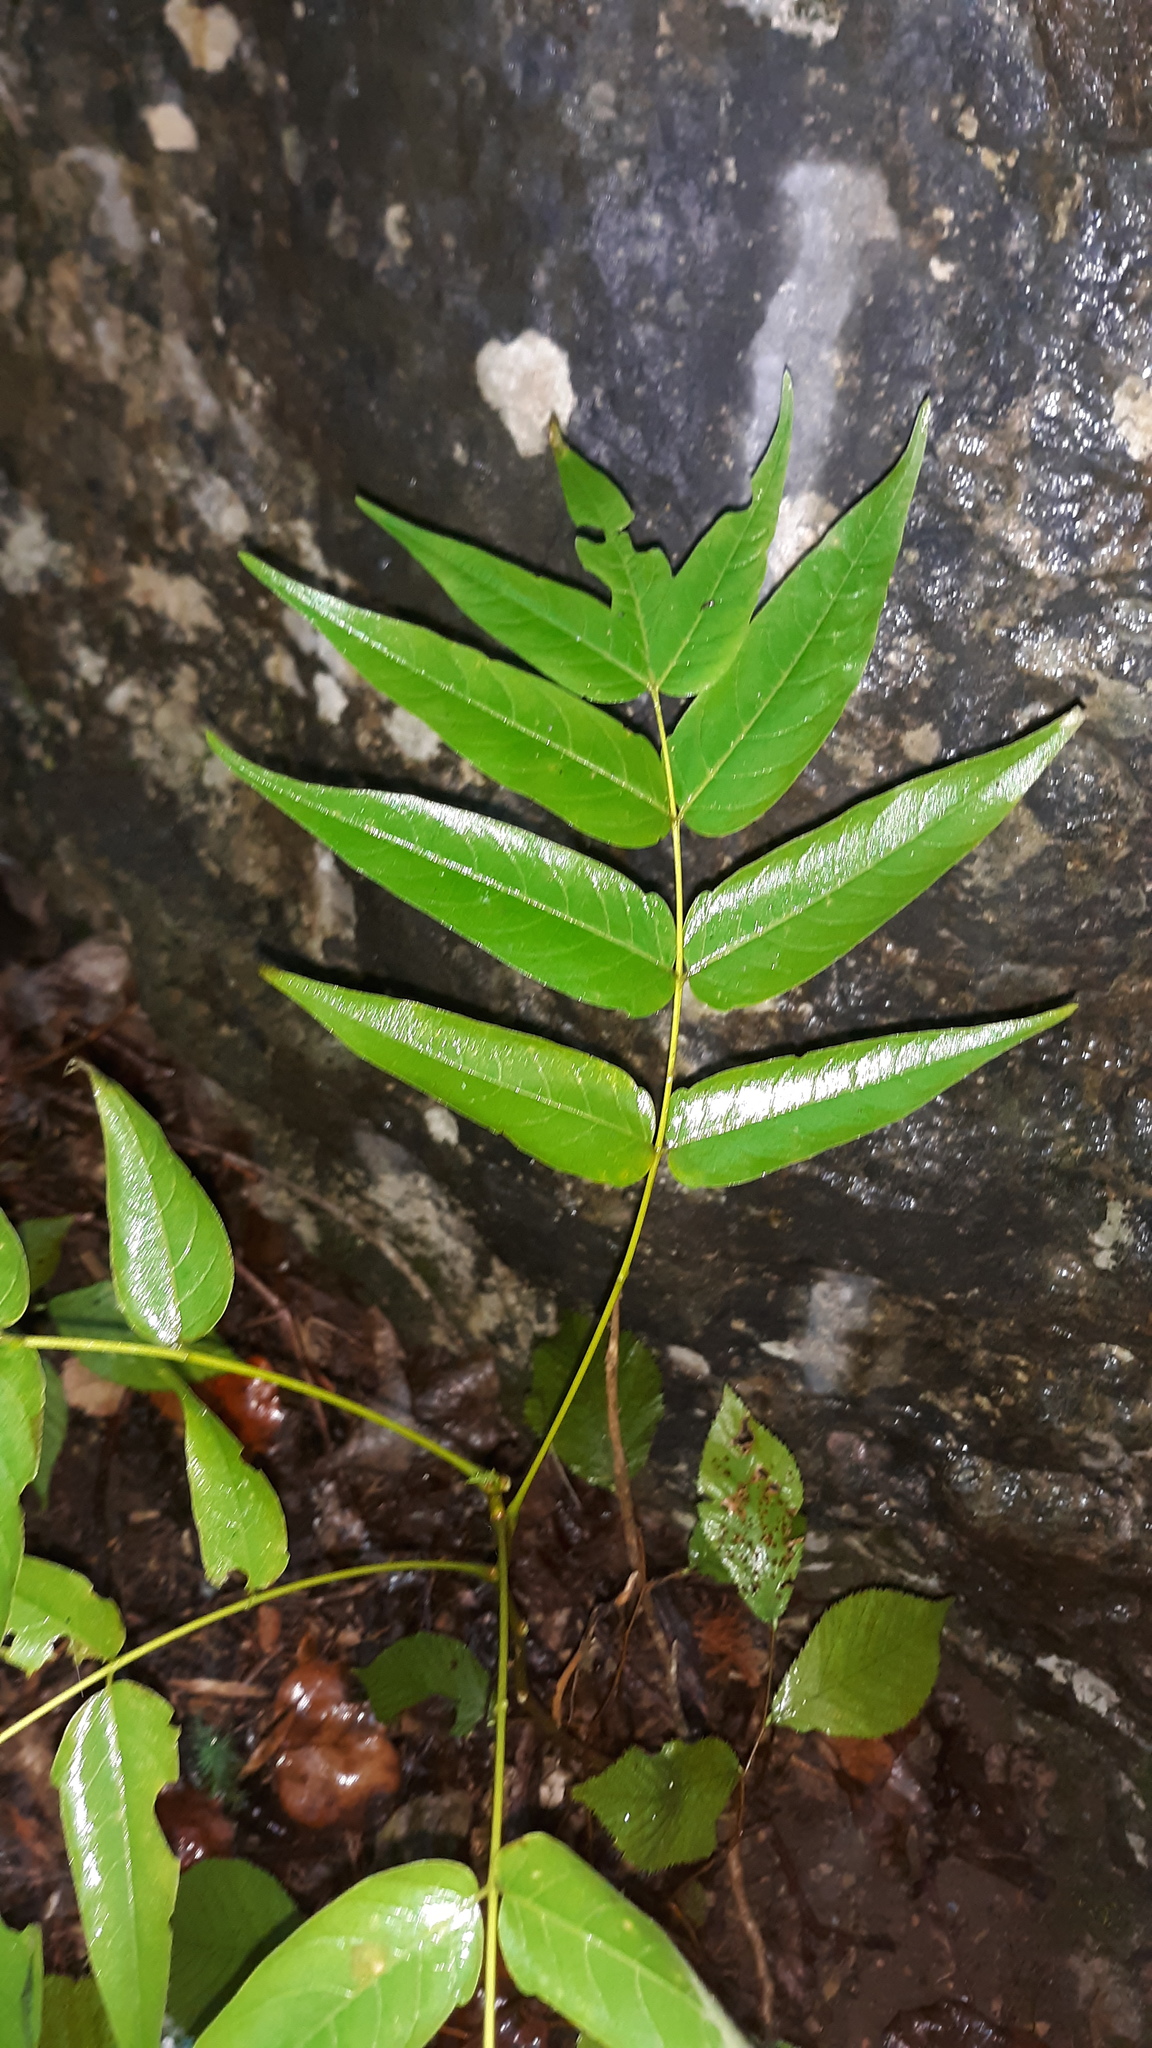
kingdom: Plantae
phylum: Tracheophyta
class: Magnoliopsida
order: Sapindales
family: Simaroubaceae
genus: Ailanthus
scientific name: Ailanthus altissima
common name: Tree-of-heaven
